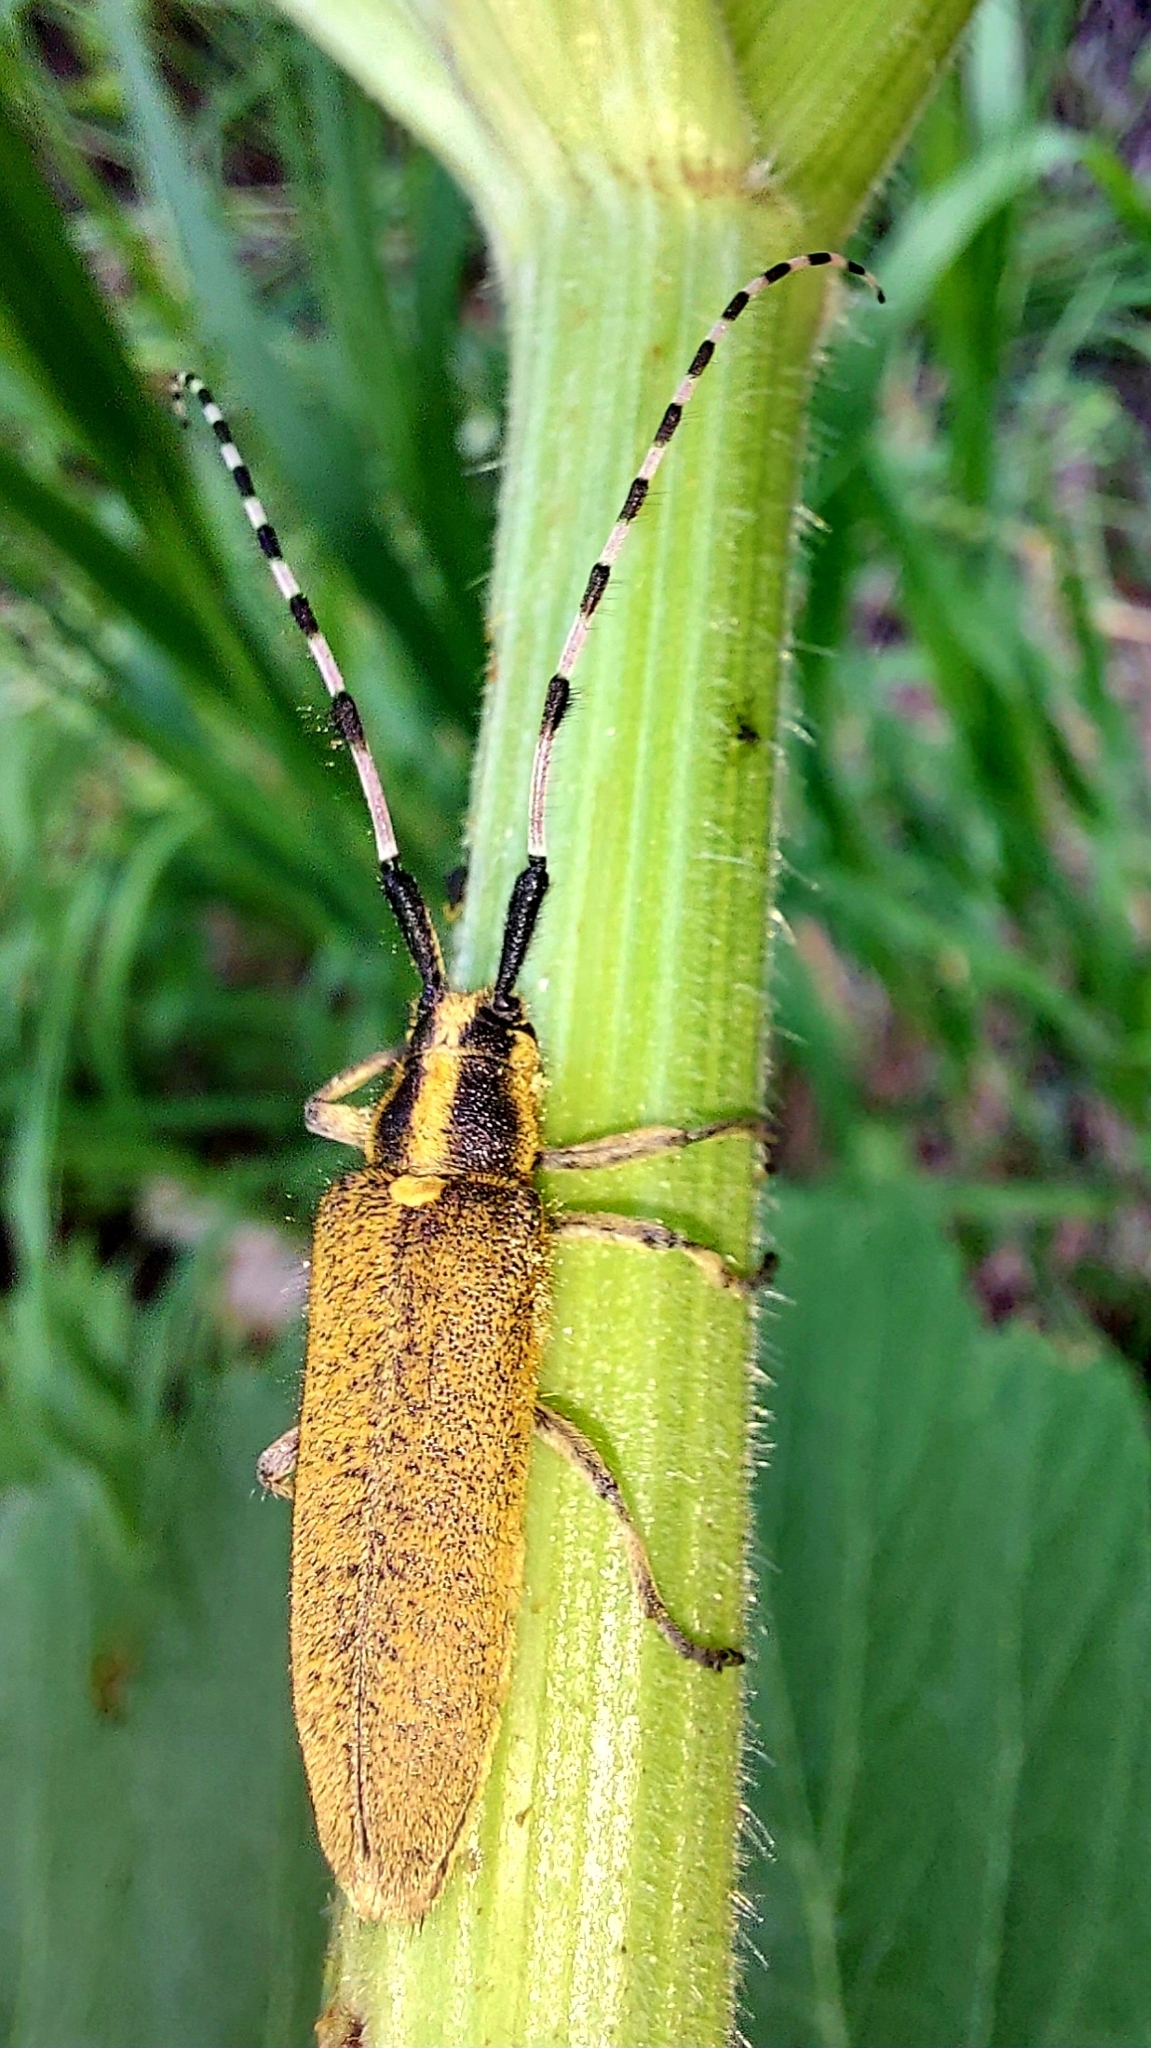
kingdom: Animalia
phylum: Arthropoda
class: Insecta
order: Coleoptera
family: Cerambycidae
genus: Agapanthia
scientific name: Agapanthia dahlii
